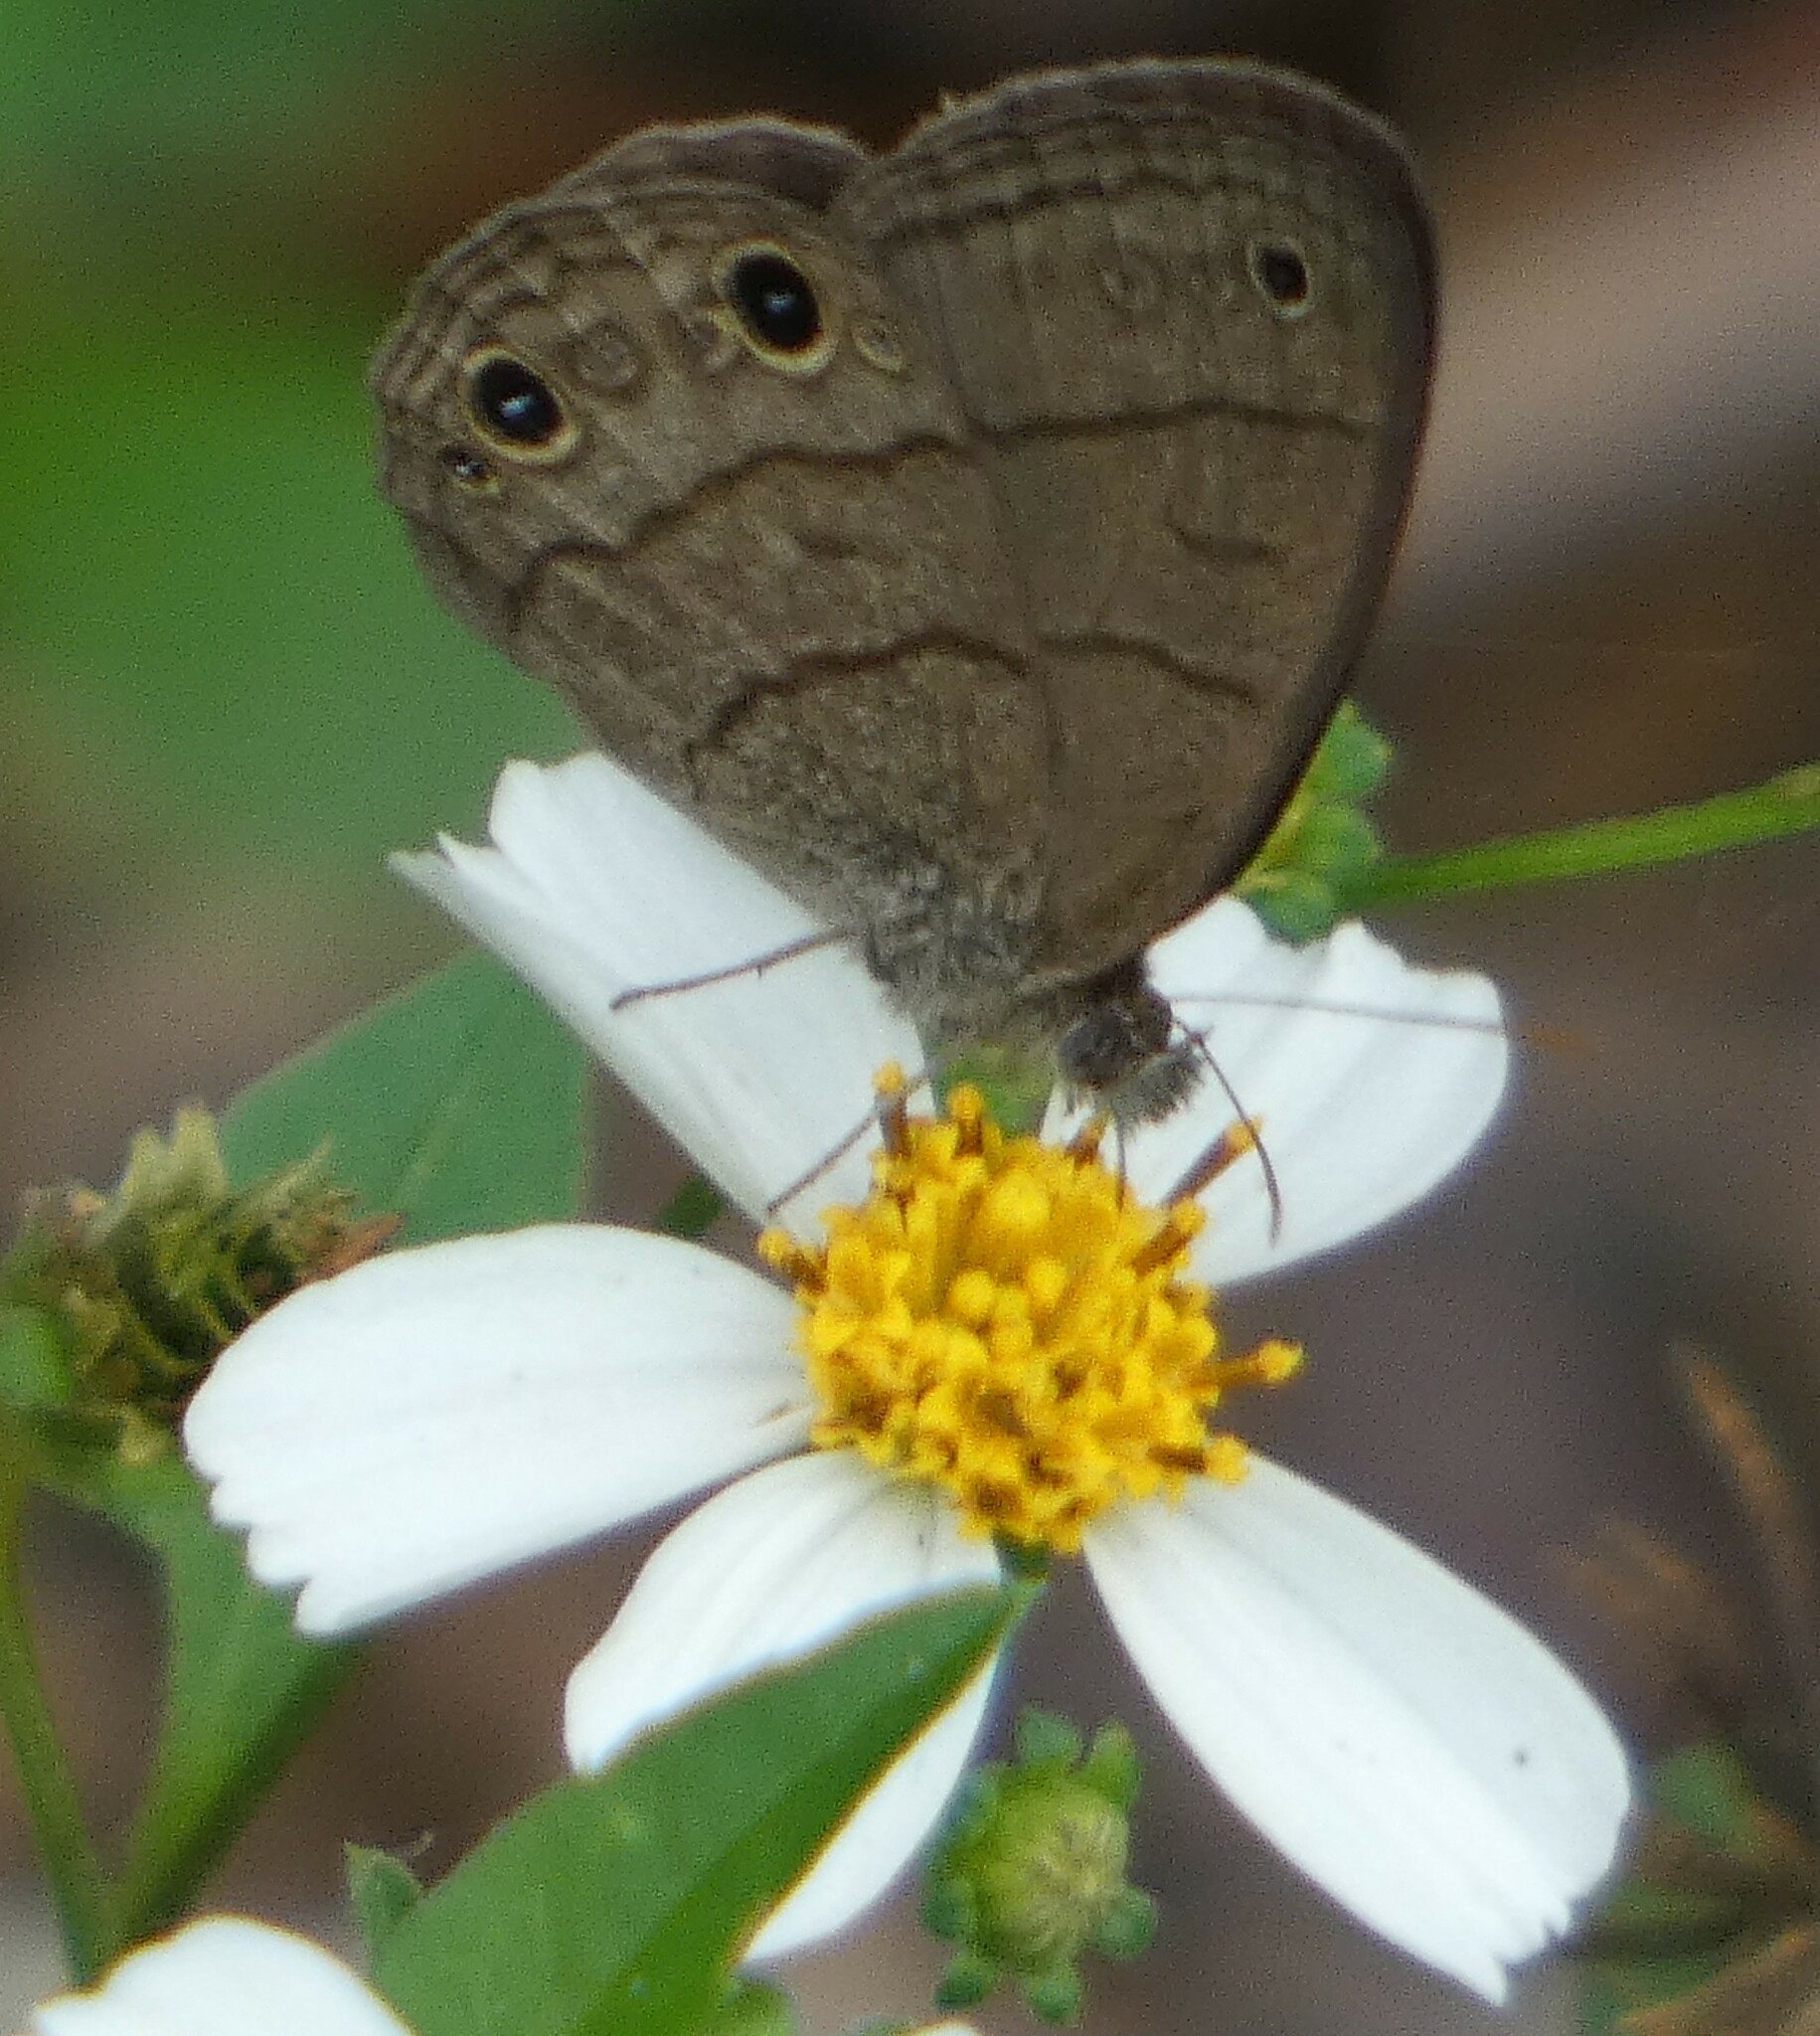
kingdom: Animalia
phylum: Arthropoda
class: Insecta
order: Lepidoptera
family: Nymphalidae
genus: Hermeuptychia
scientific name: Hermeuptychia hermes
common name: Hermes satyr
